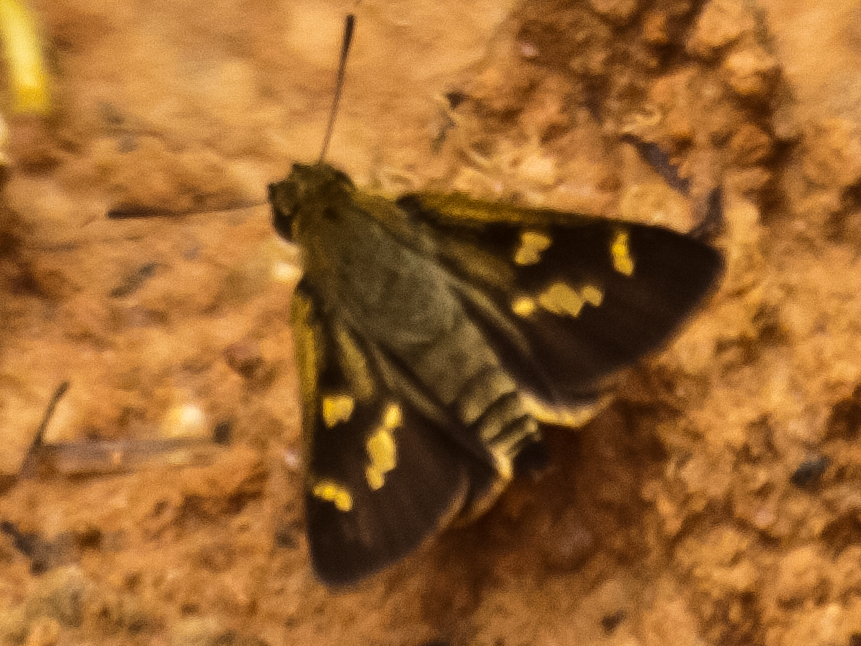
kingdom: Animalia
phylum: Arthropoda
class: Insecta
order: Lepidoptera
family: Hesperiidae
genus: Thoressa
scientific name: Thoressa masoni
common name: Golden ace
